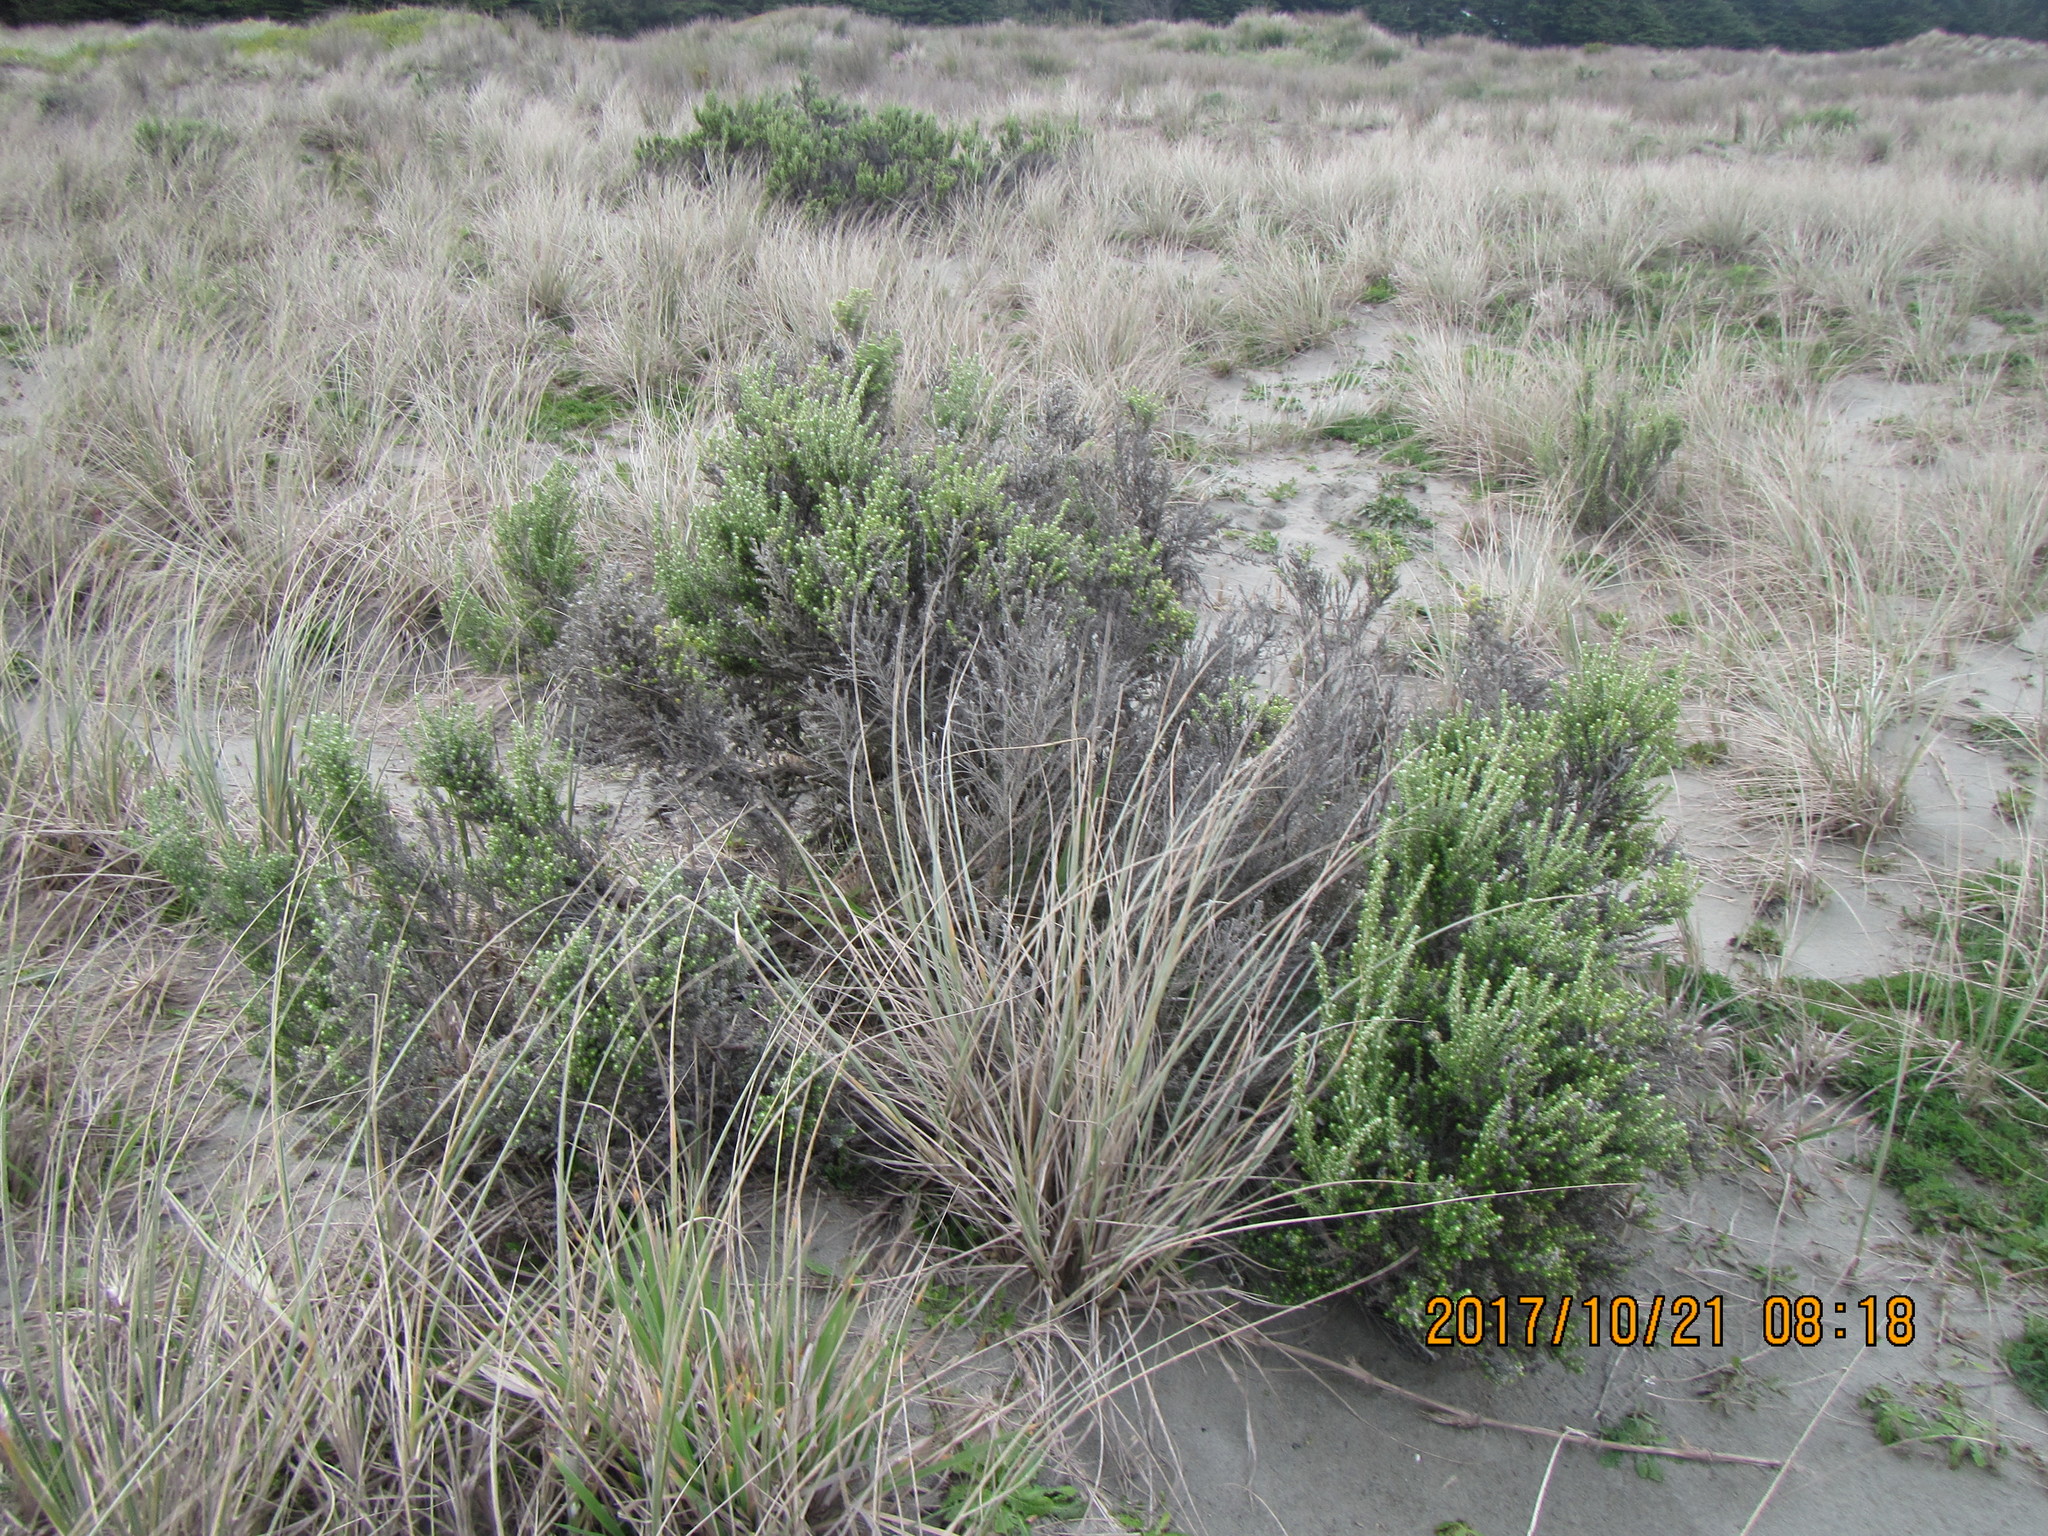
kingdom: Plantae
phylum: Tracheophyta
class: Magnoliopsida
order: Asterales
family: Asteraceae
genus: Ozothamnus
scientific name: Ozothamnus leptophyllus
